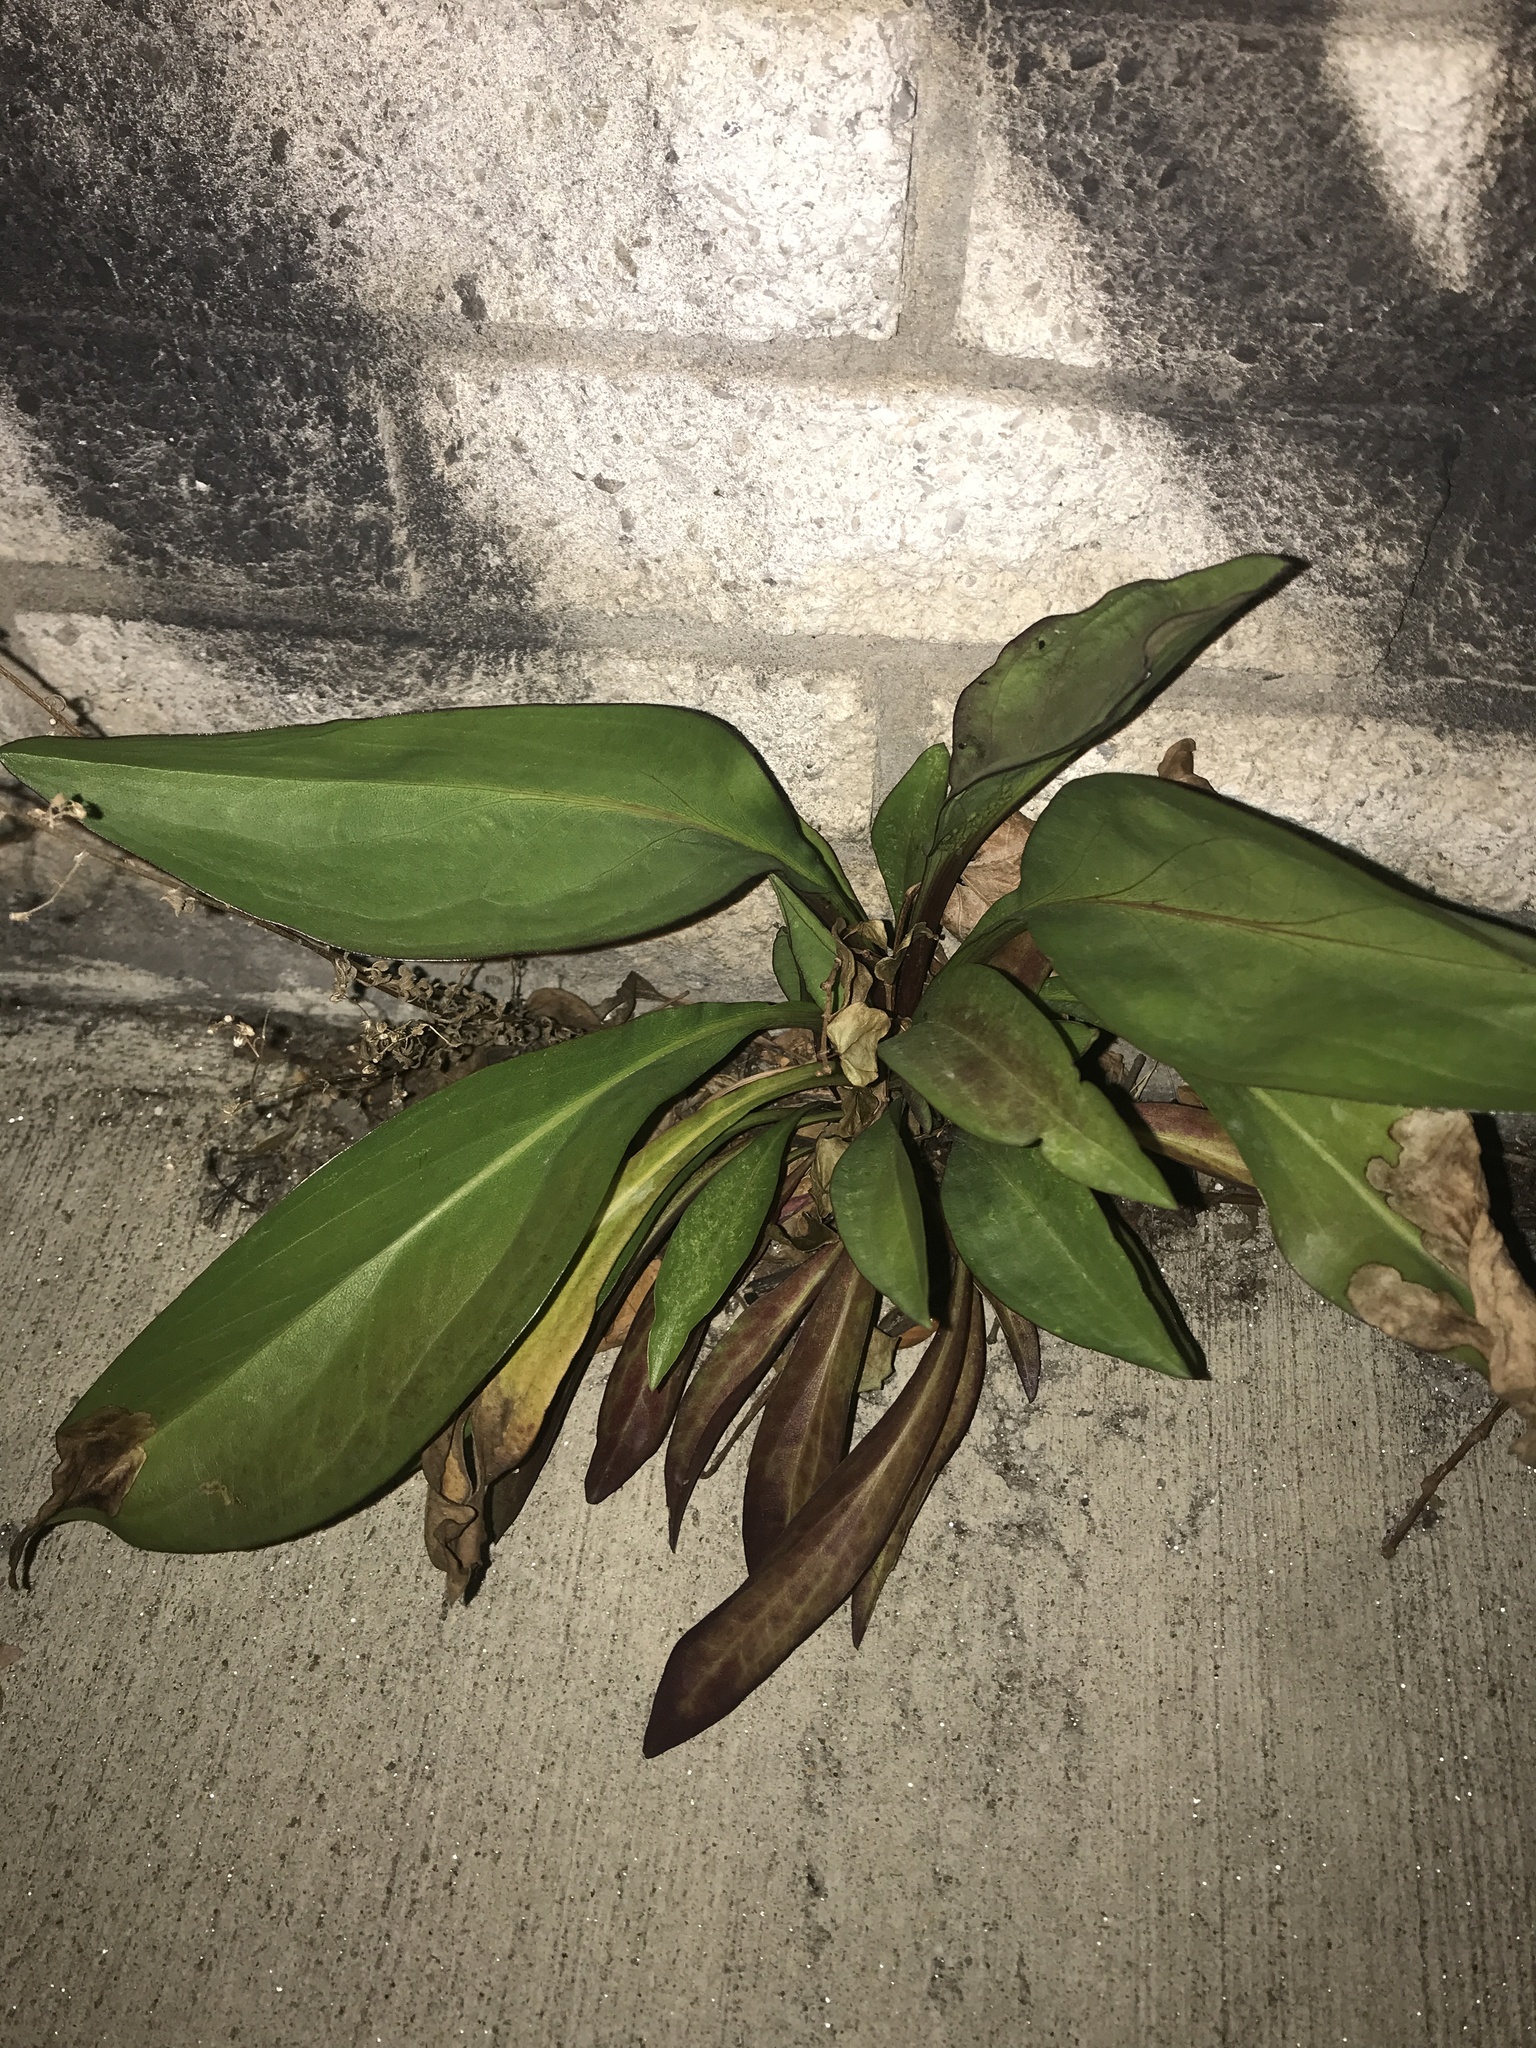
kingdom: Plantae
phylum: Tracheophyta
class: Magnoliopsida
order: Asterales
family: Asteraceae
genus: Solidago
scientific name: Solidago sempervirens
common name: Salt-marsh goldenrod
